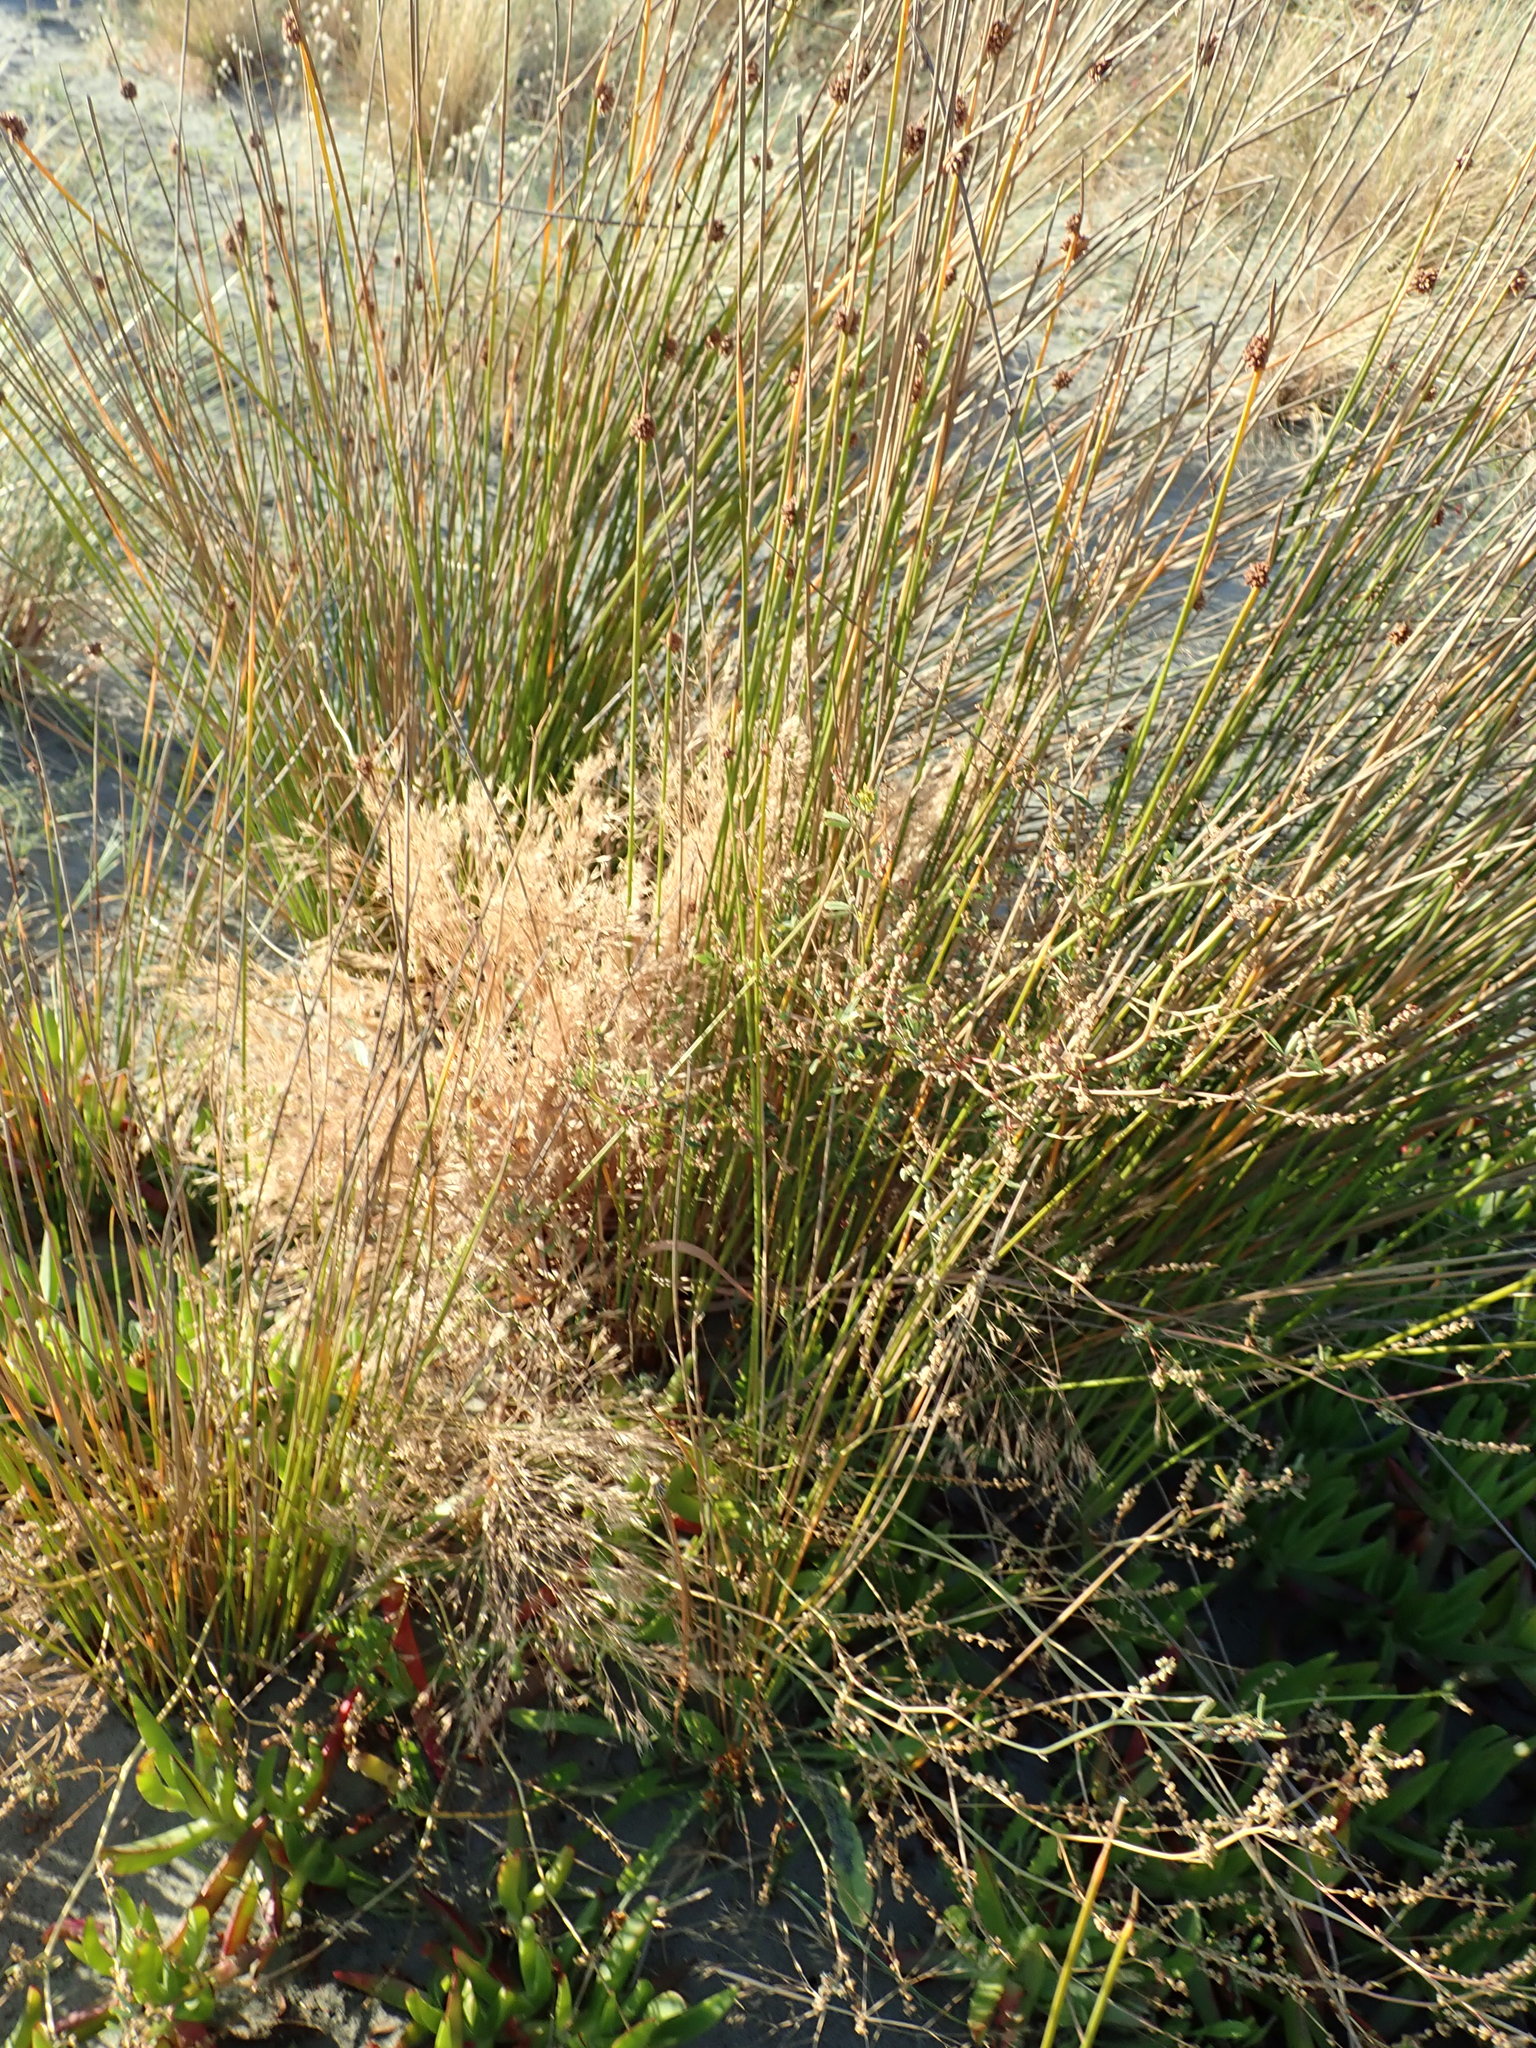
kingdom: Plantae
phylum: Tracheophyta
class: Liliopsida
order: Poales
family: Cyperaceae
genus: Ficinia
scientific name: Ficinia nodosa
